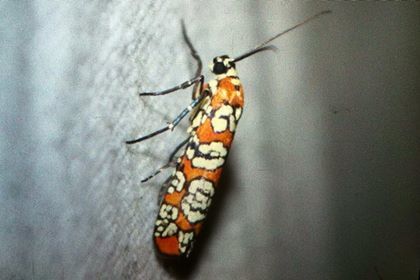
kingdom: Animalia
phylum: Arthropoda
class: Insecta
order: Lepidoptera
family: Attevidae
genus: Atteva
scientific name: Atteva punctella
